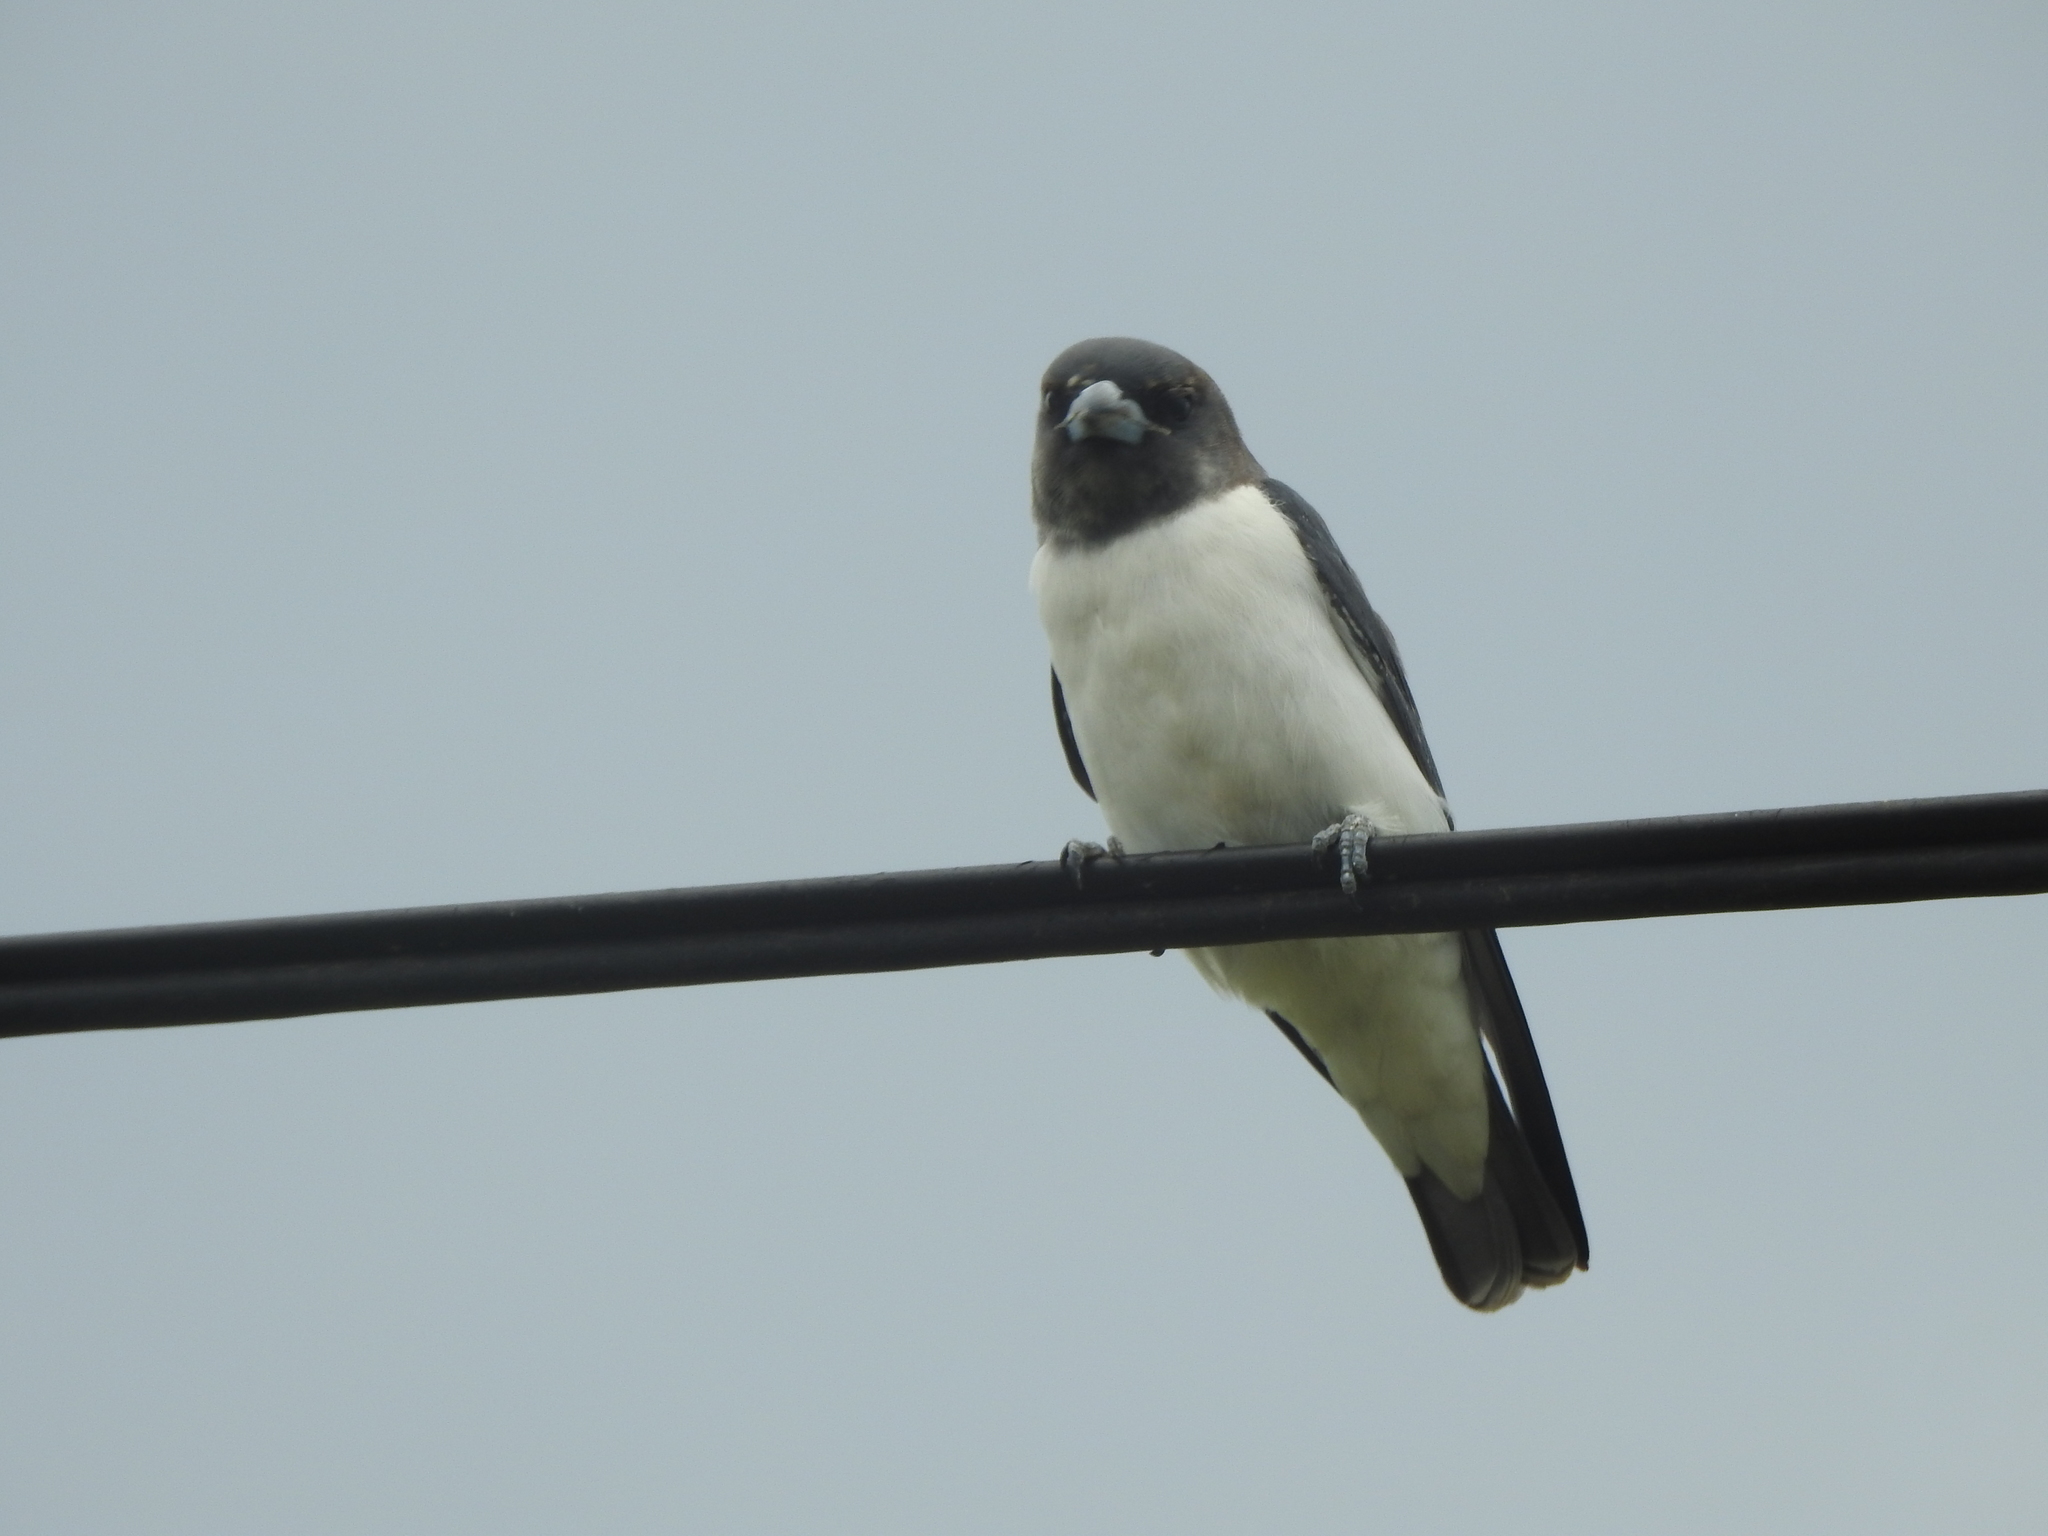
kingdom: Animalia
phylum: Chordata
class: Aves
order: Passeriformes
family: Artamidae
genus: Artamus
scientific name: Artamus leucoryn
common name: White-breasted woodswallow
